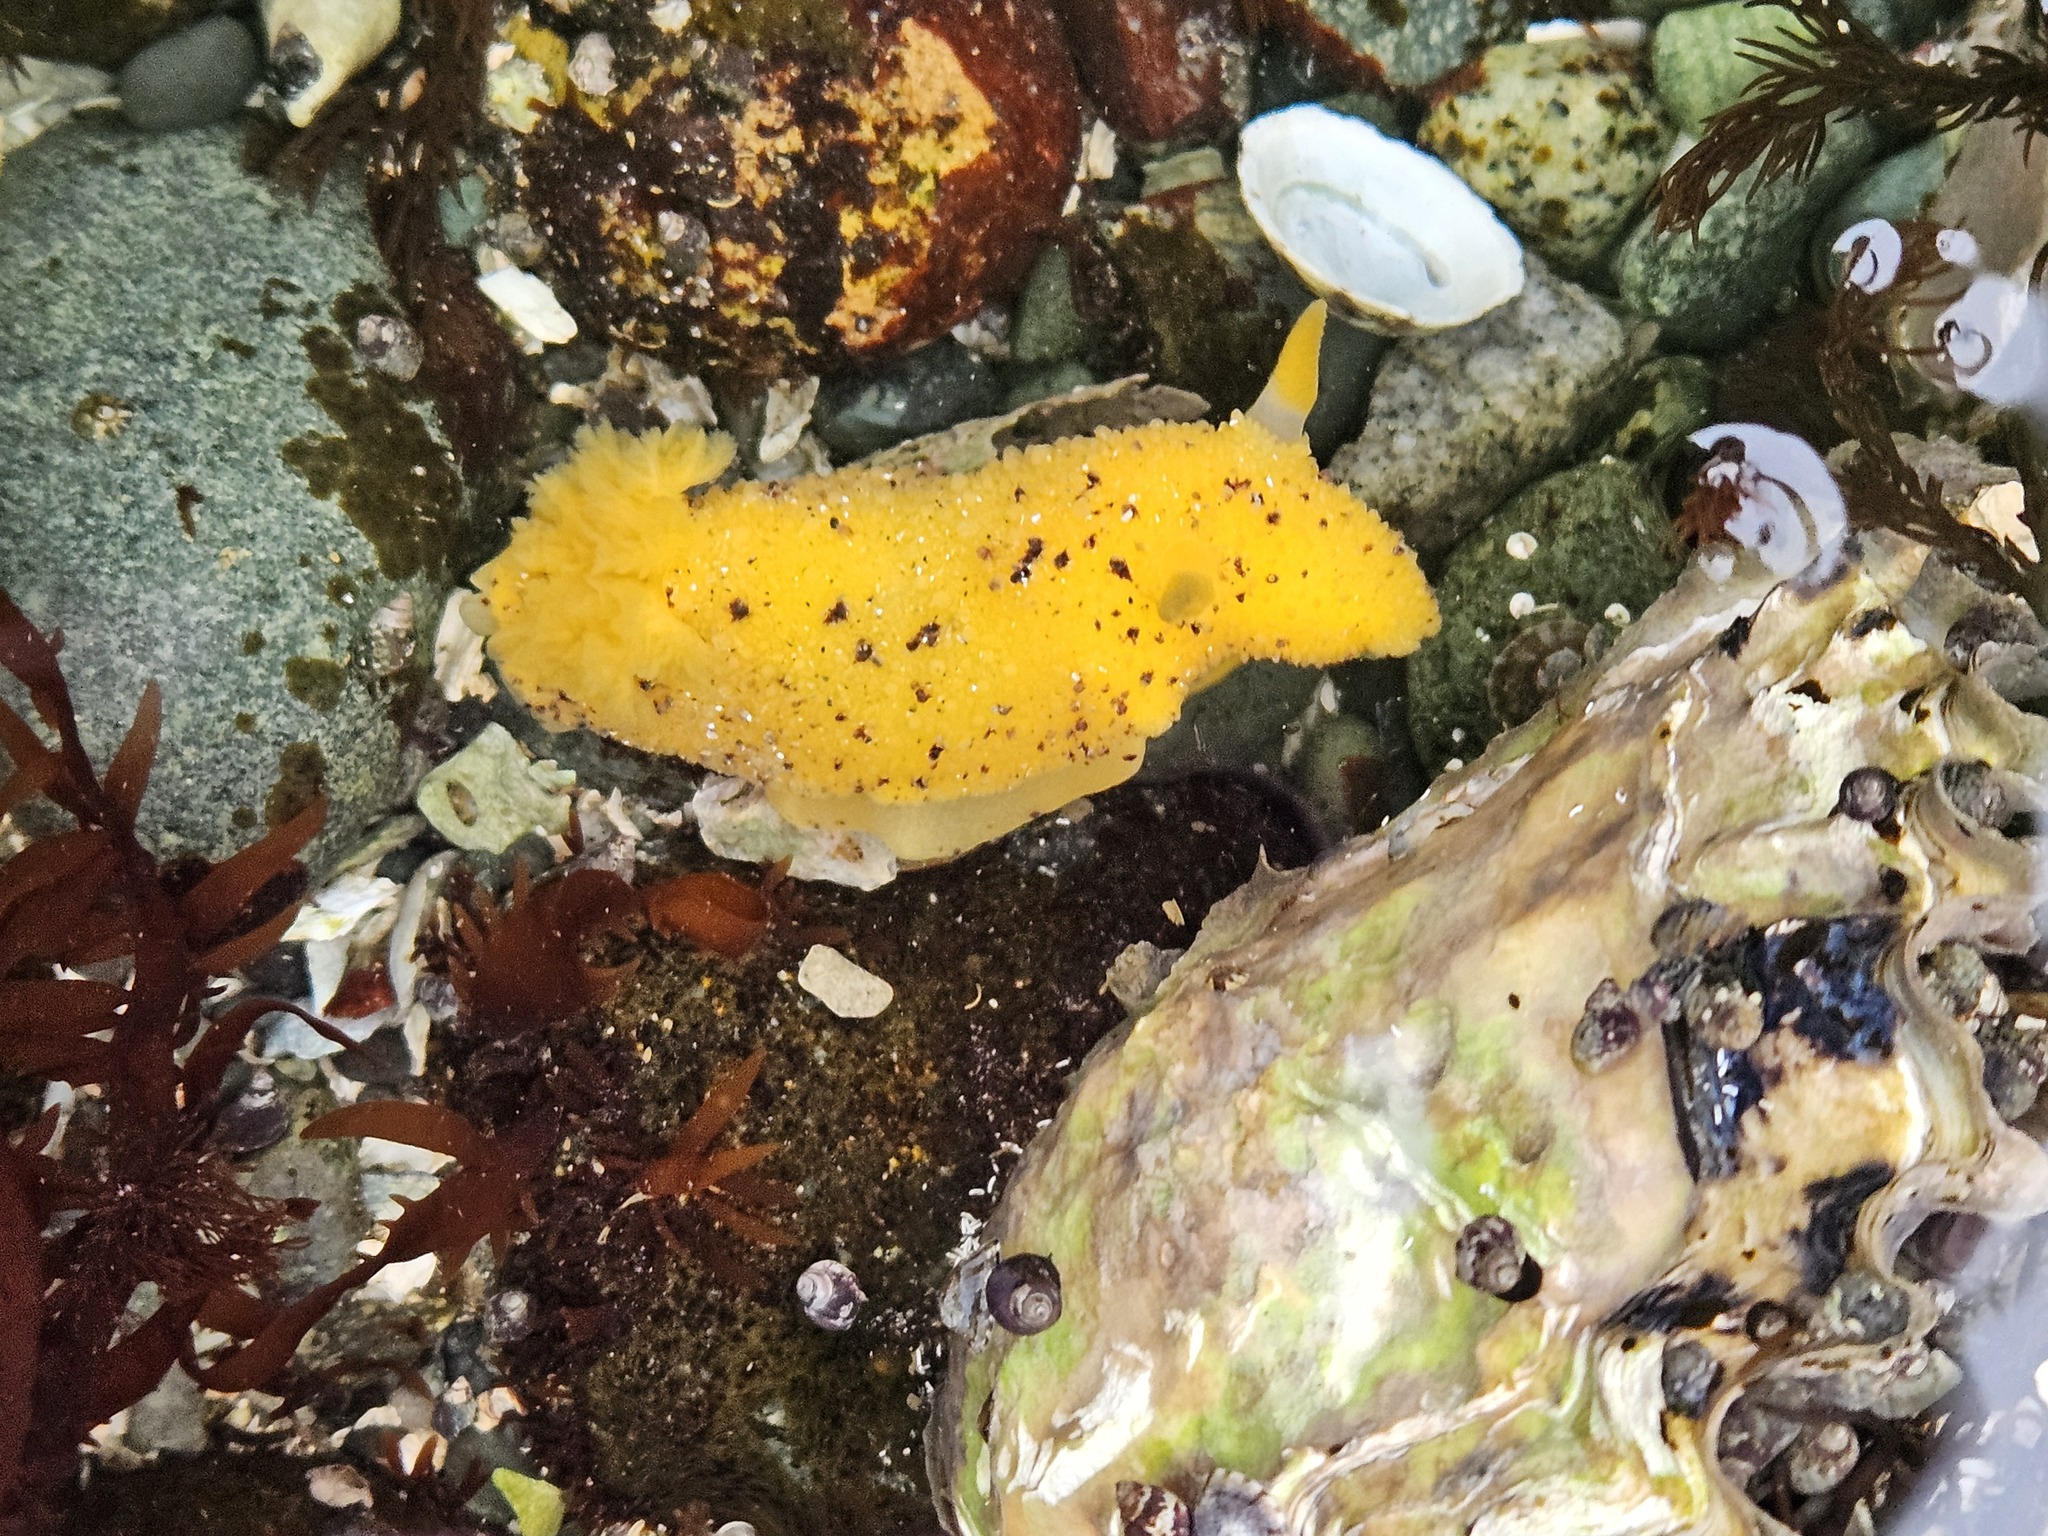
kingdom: Animalia
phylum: Mollusca
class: Gastropoda
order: Nudibranchia
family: Dorididae
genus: Doris
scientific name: Doris montereyensis
